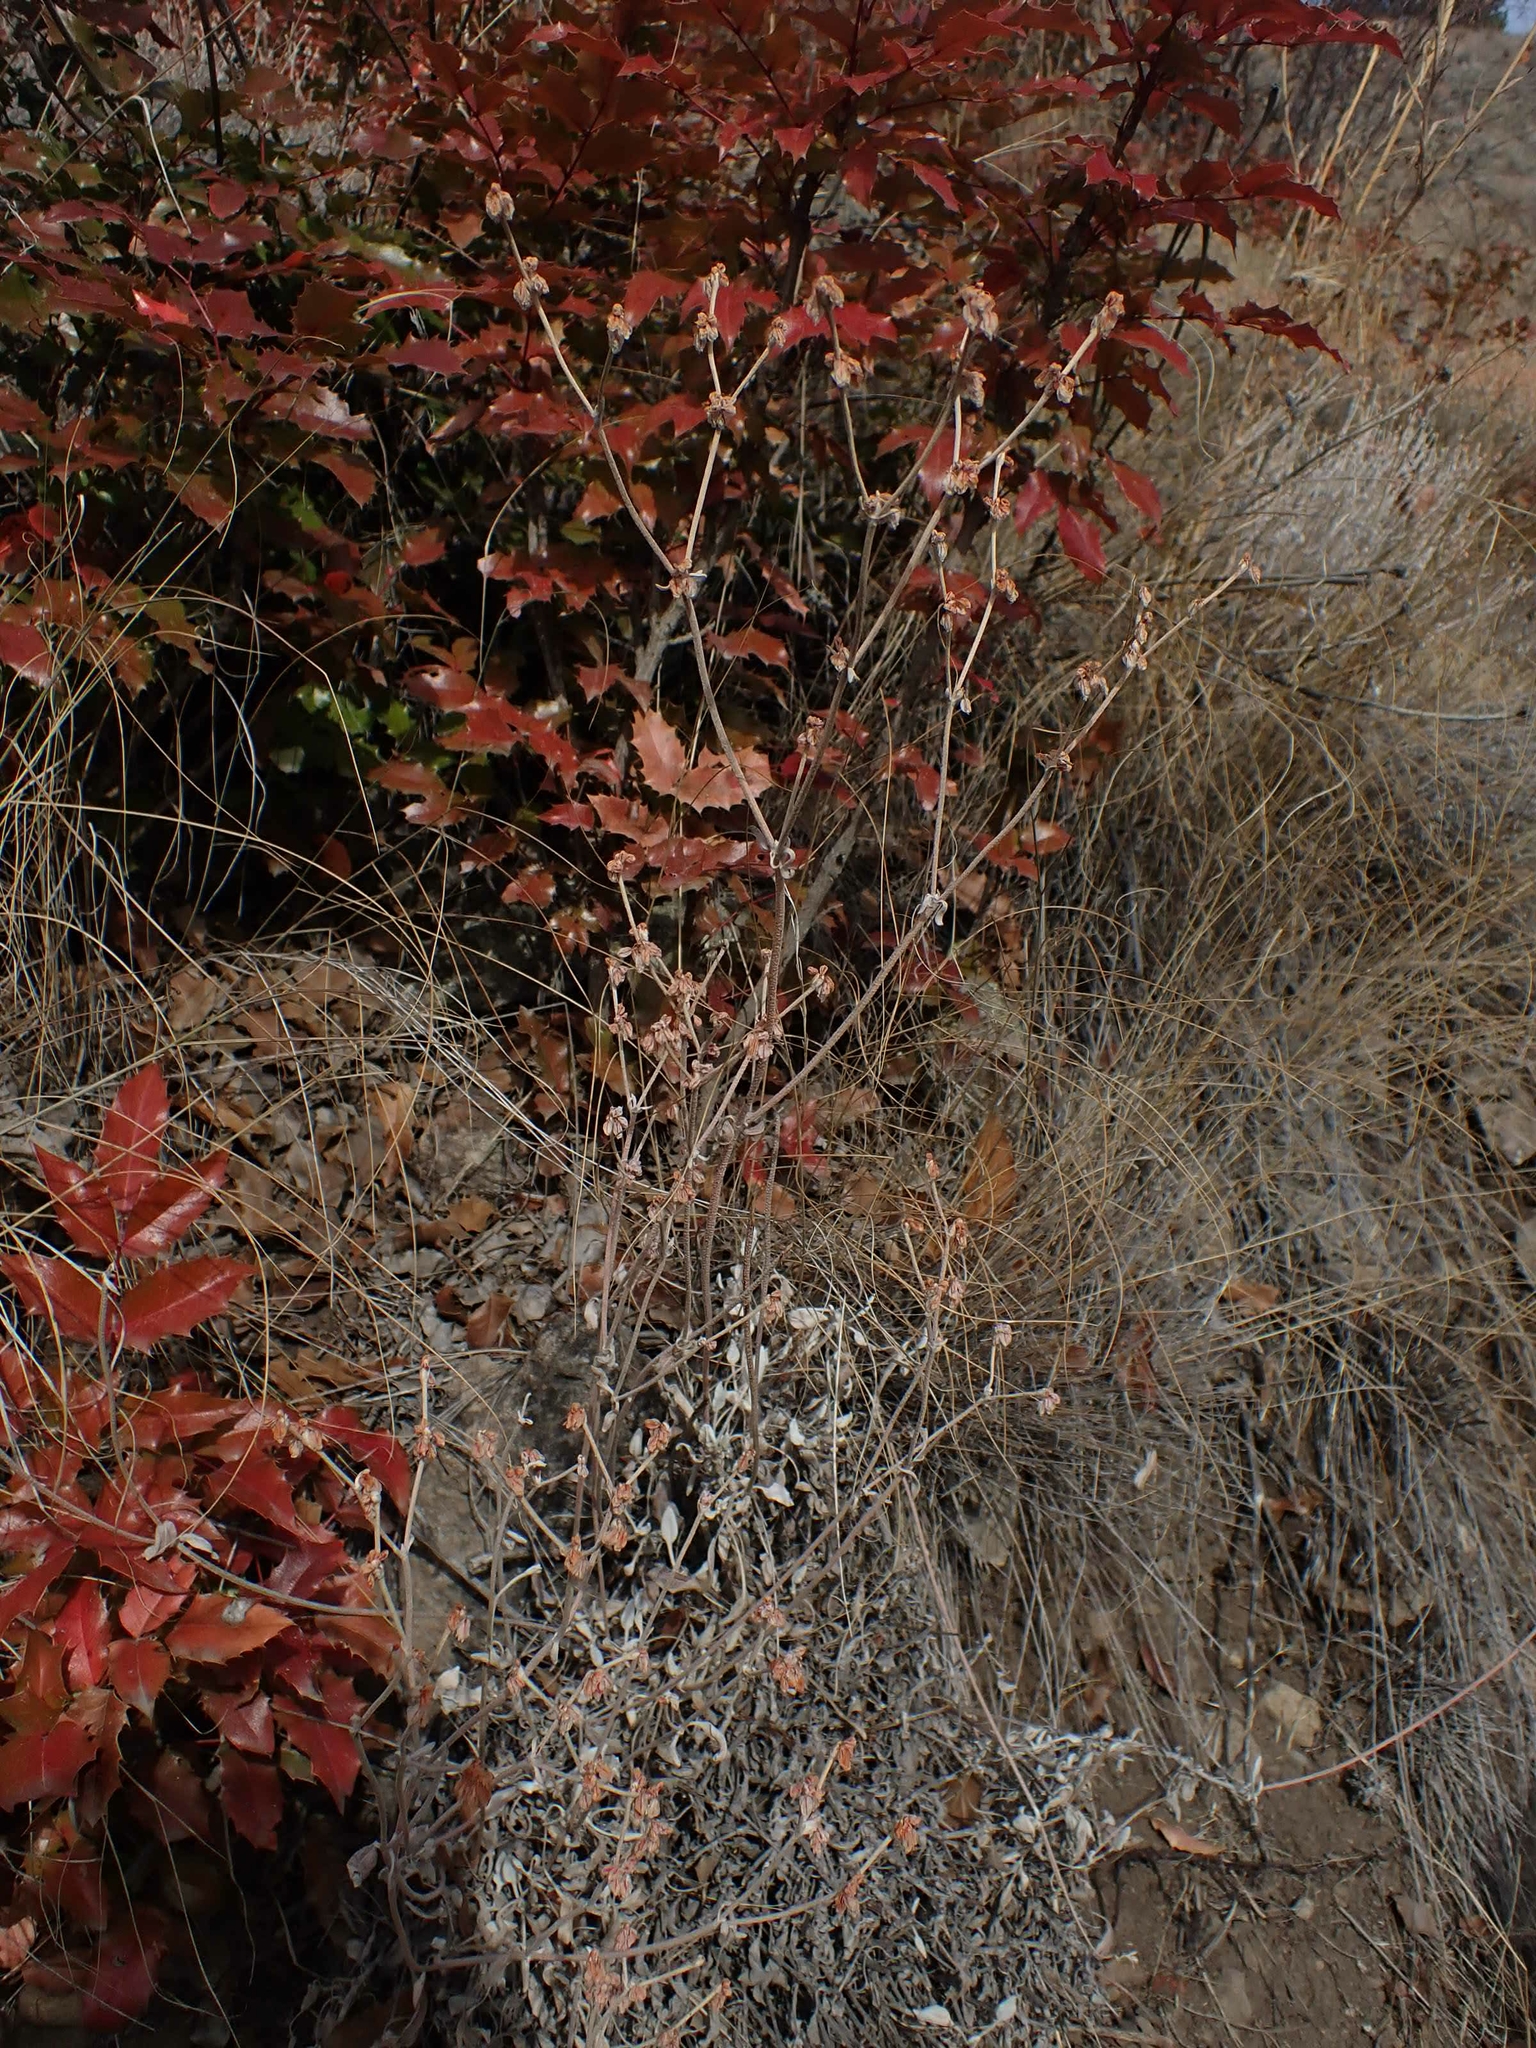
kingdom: Plantae
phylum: Tracheophyta
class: Magnoliopsida
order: Caryophyllales
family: Polygonaceae
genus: Eriogonum
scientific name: Eriogonum niveum
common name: Snow wild buckwheat
